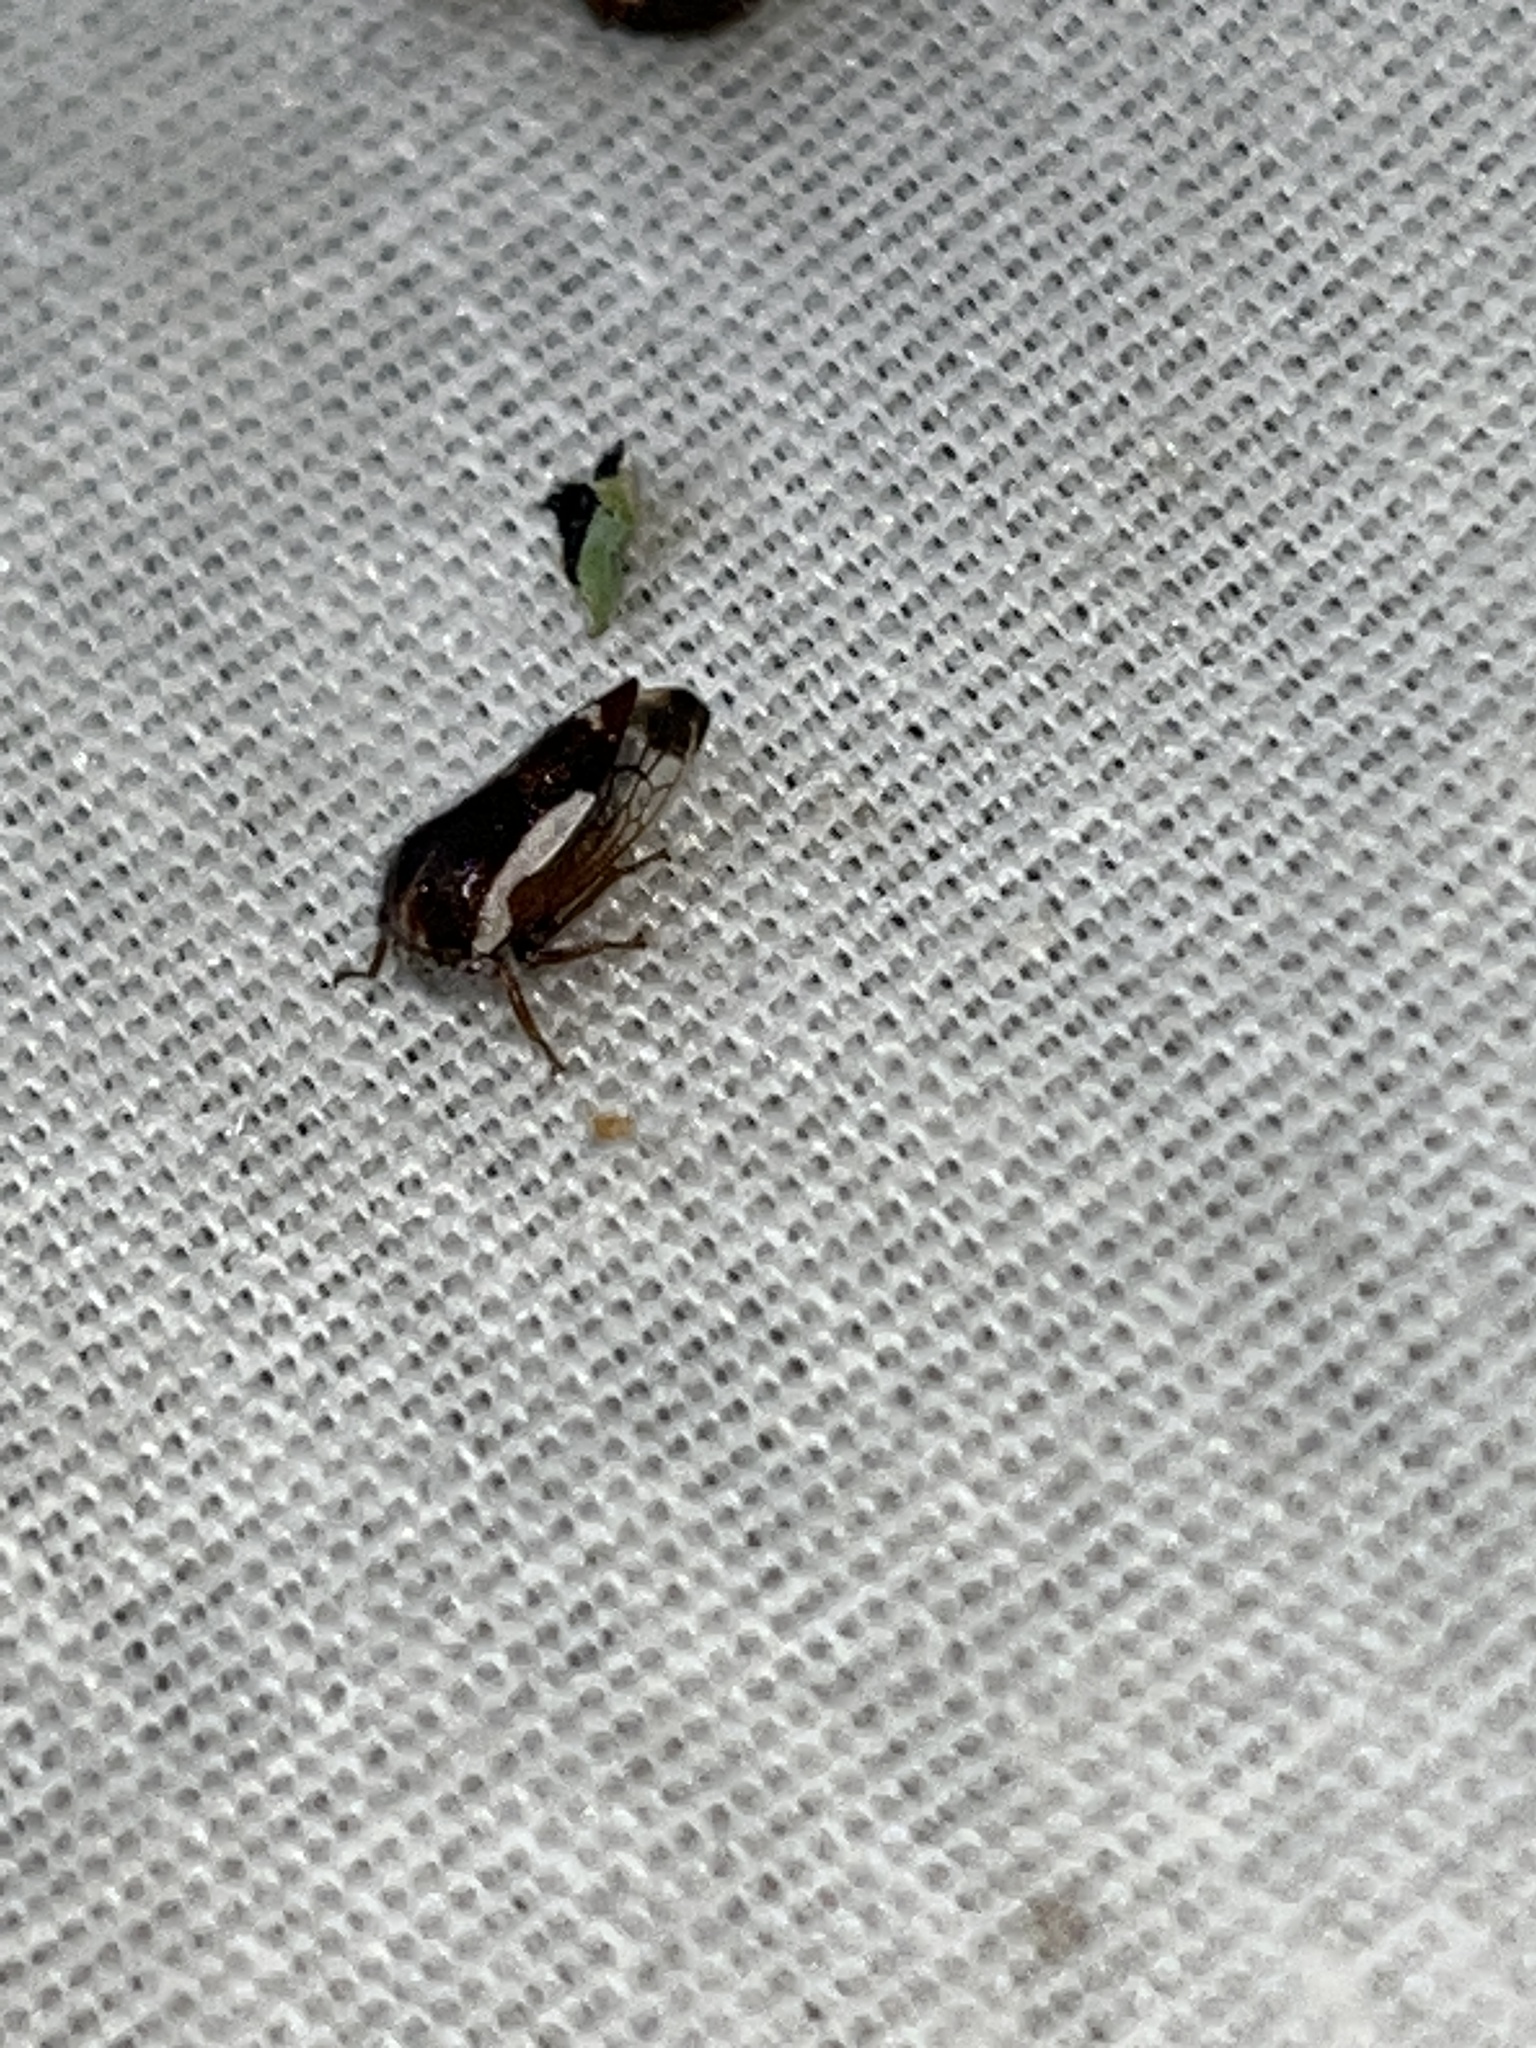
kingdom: Animalia
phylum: Arthropoda
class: Insecta
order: Hemiptera
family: Membracidae
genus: Ophiderma
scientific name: Ophiderma flavicephala
